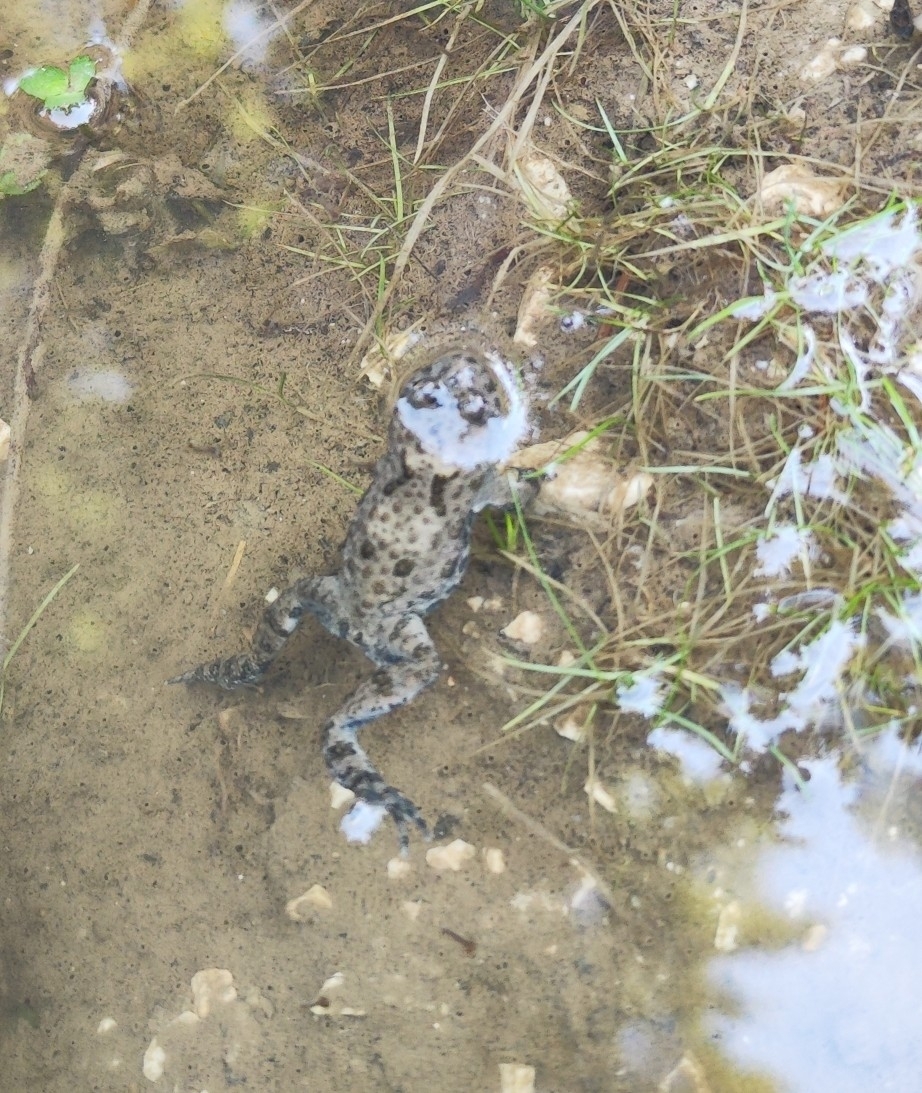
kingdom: Animalia
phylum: Chordata
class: Amphibia
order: Anura
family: Bombinatoridae
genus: Bombina
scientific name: Bombina variegata
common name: Yellow-bellied toad
